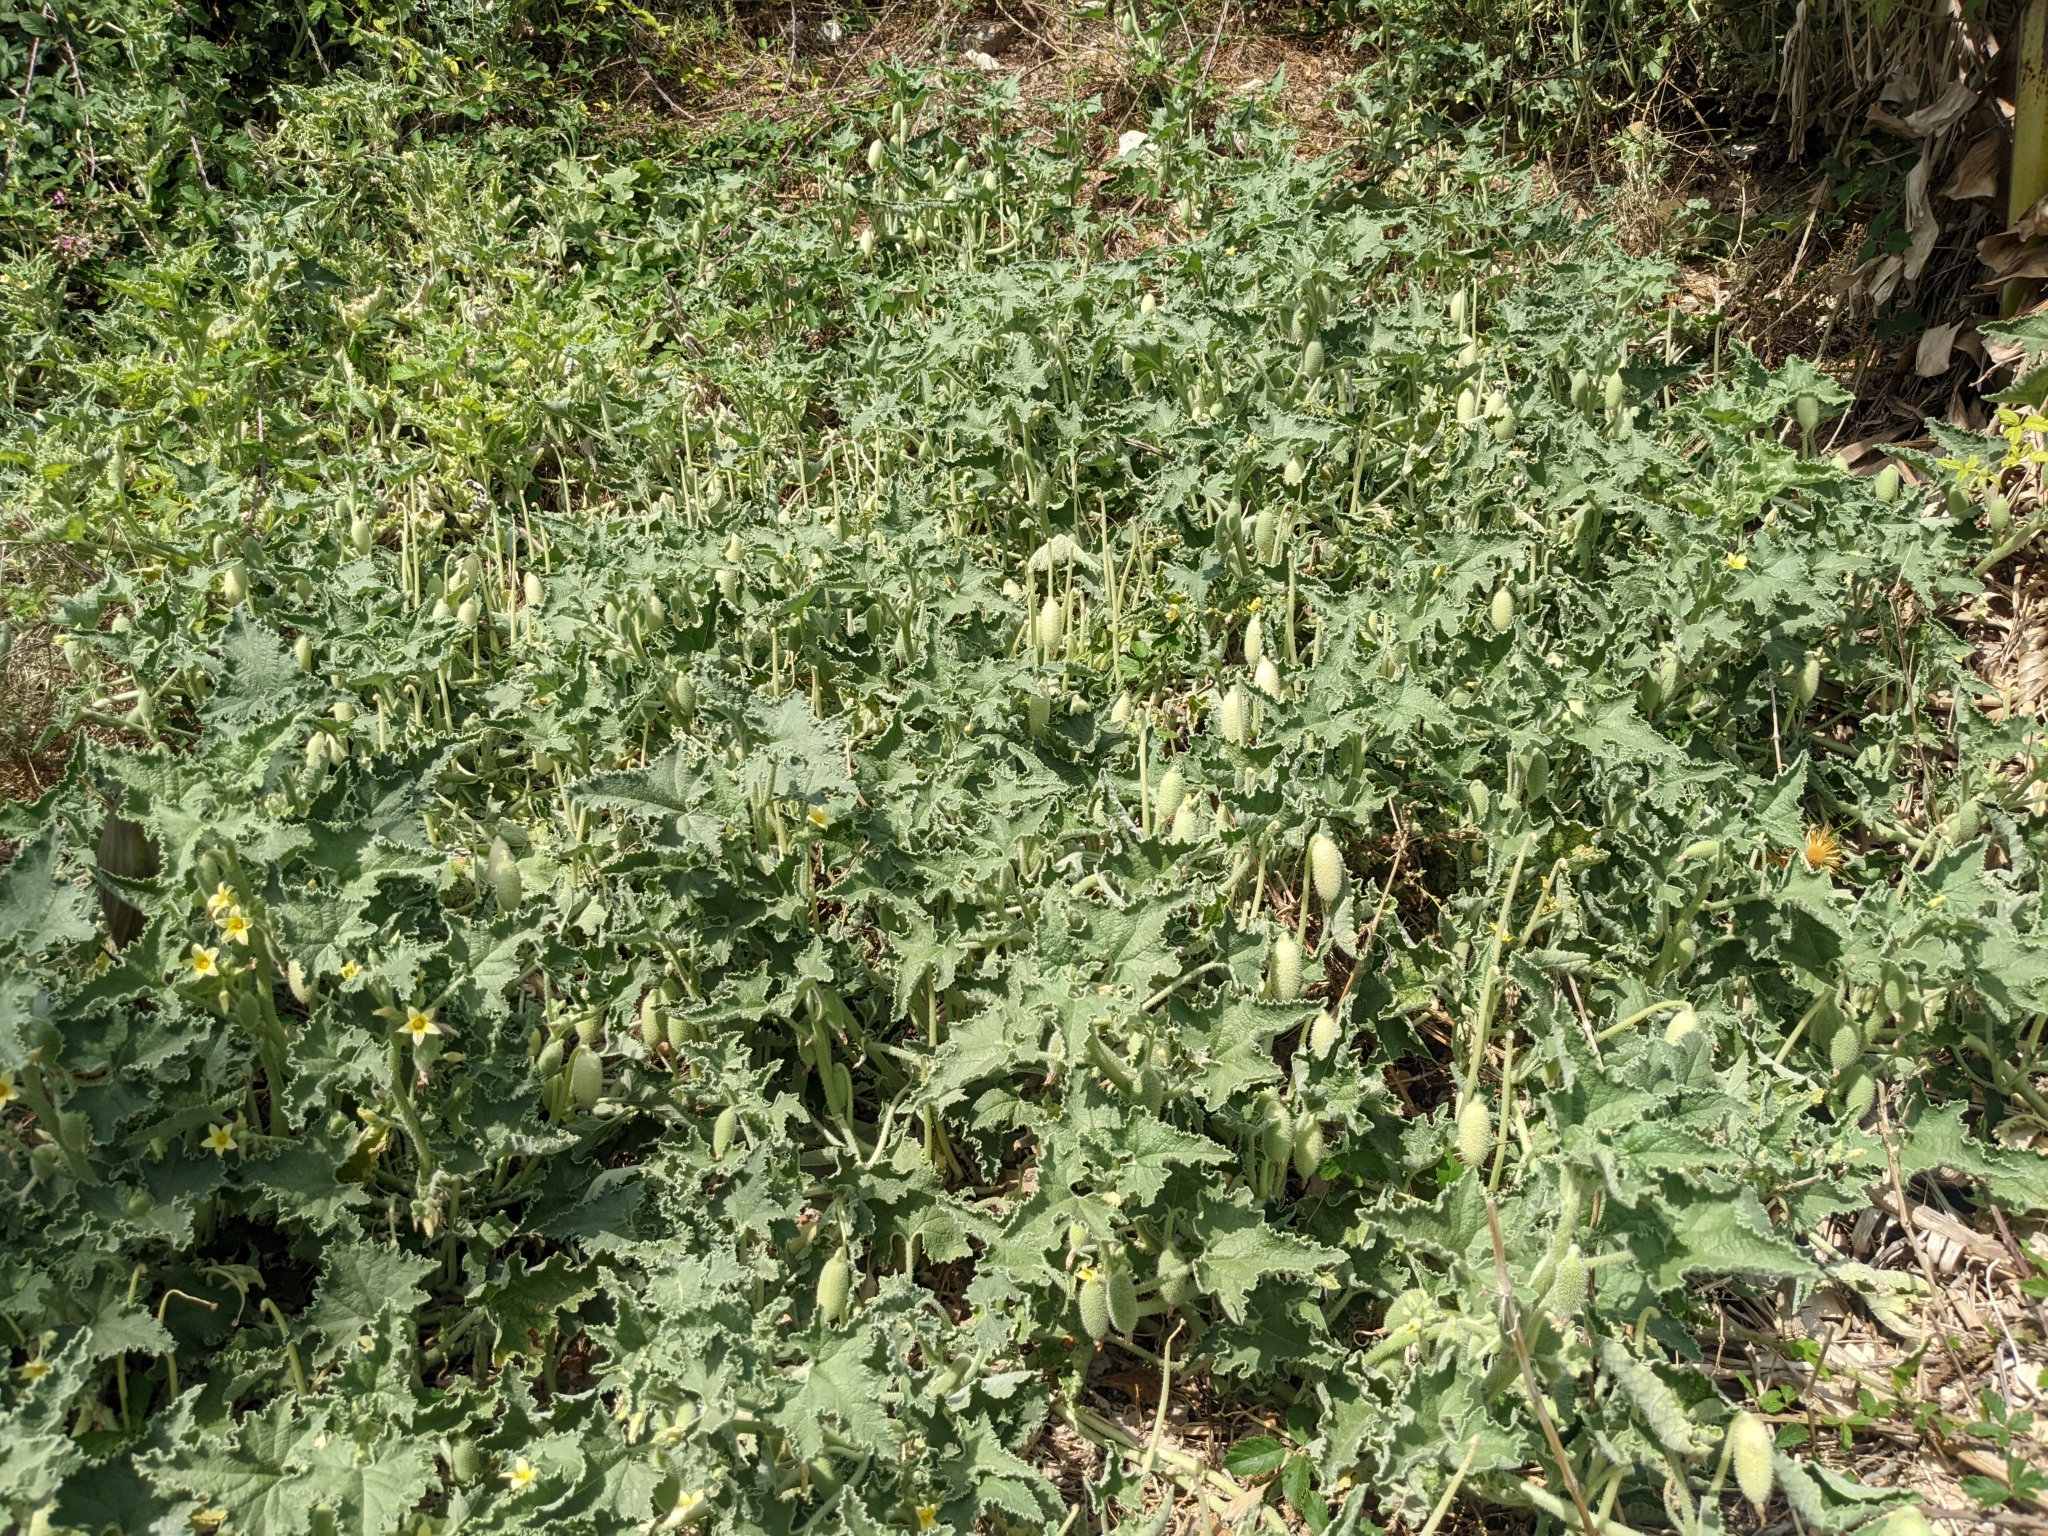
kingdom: Plantae
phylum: Tracheophyta
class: Magnoliopsida
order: Cucurbitales
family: Cucurbitaceae
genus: Ecballium
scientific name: Ecballium elaterium
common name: Squirting cucumber
